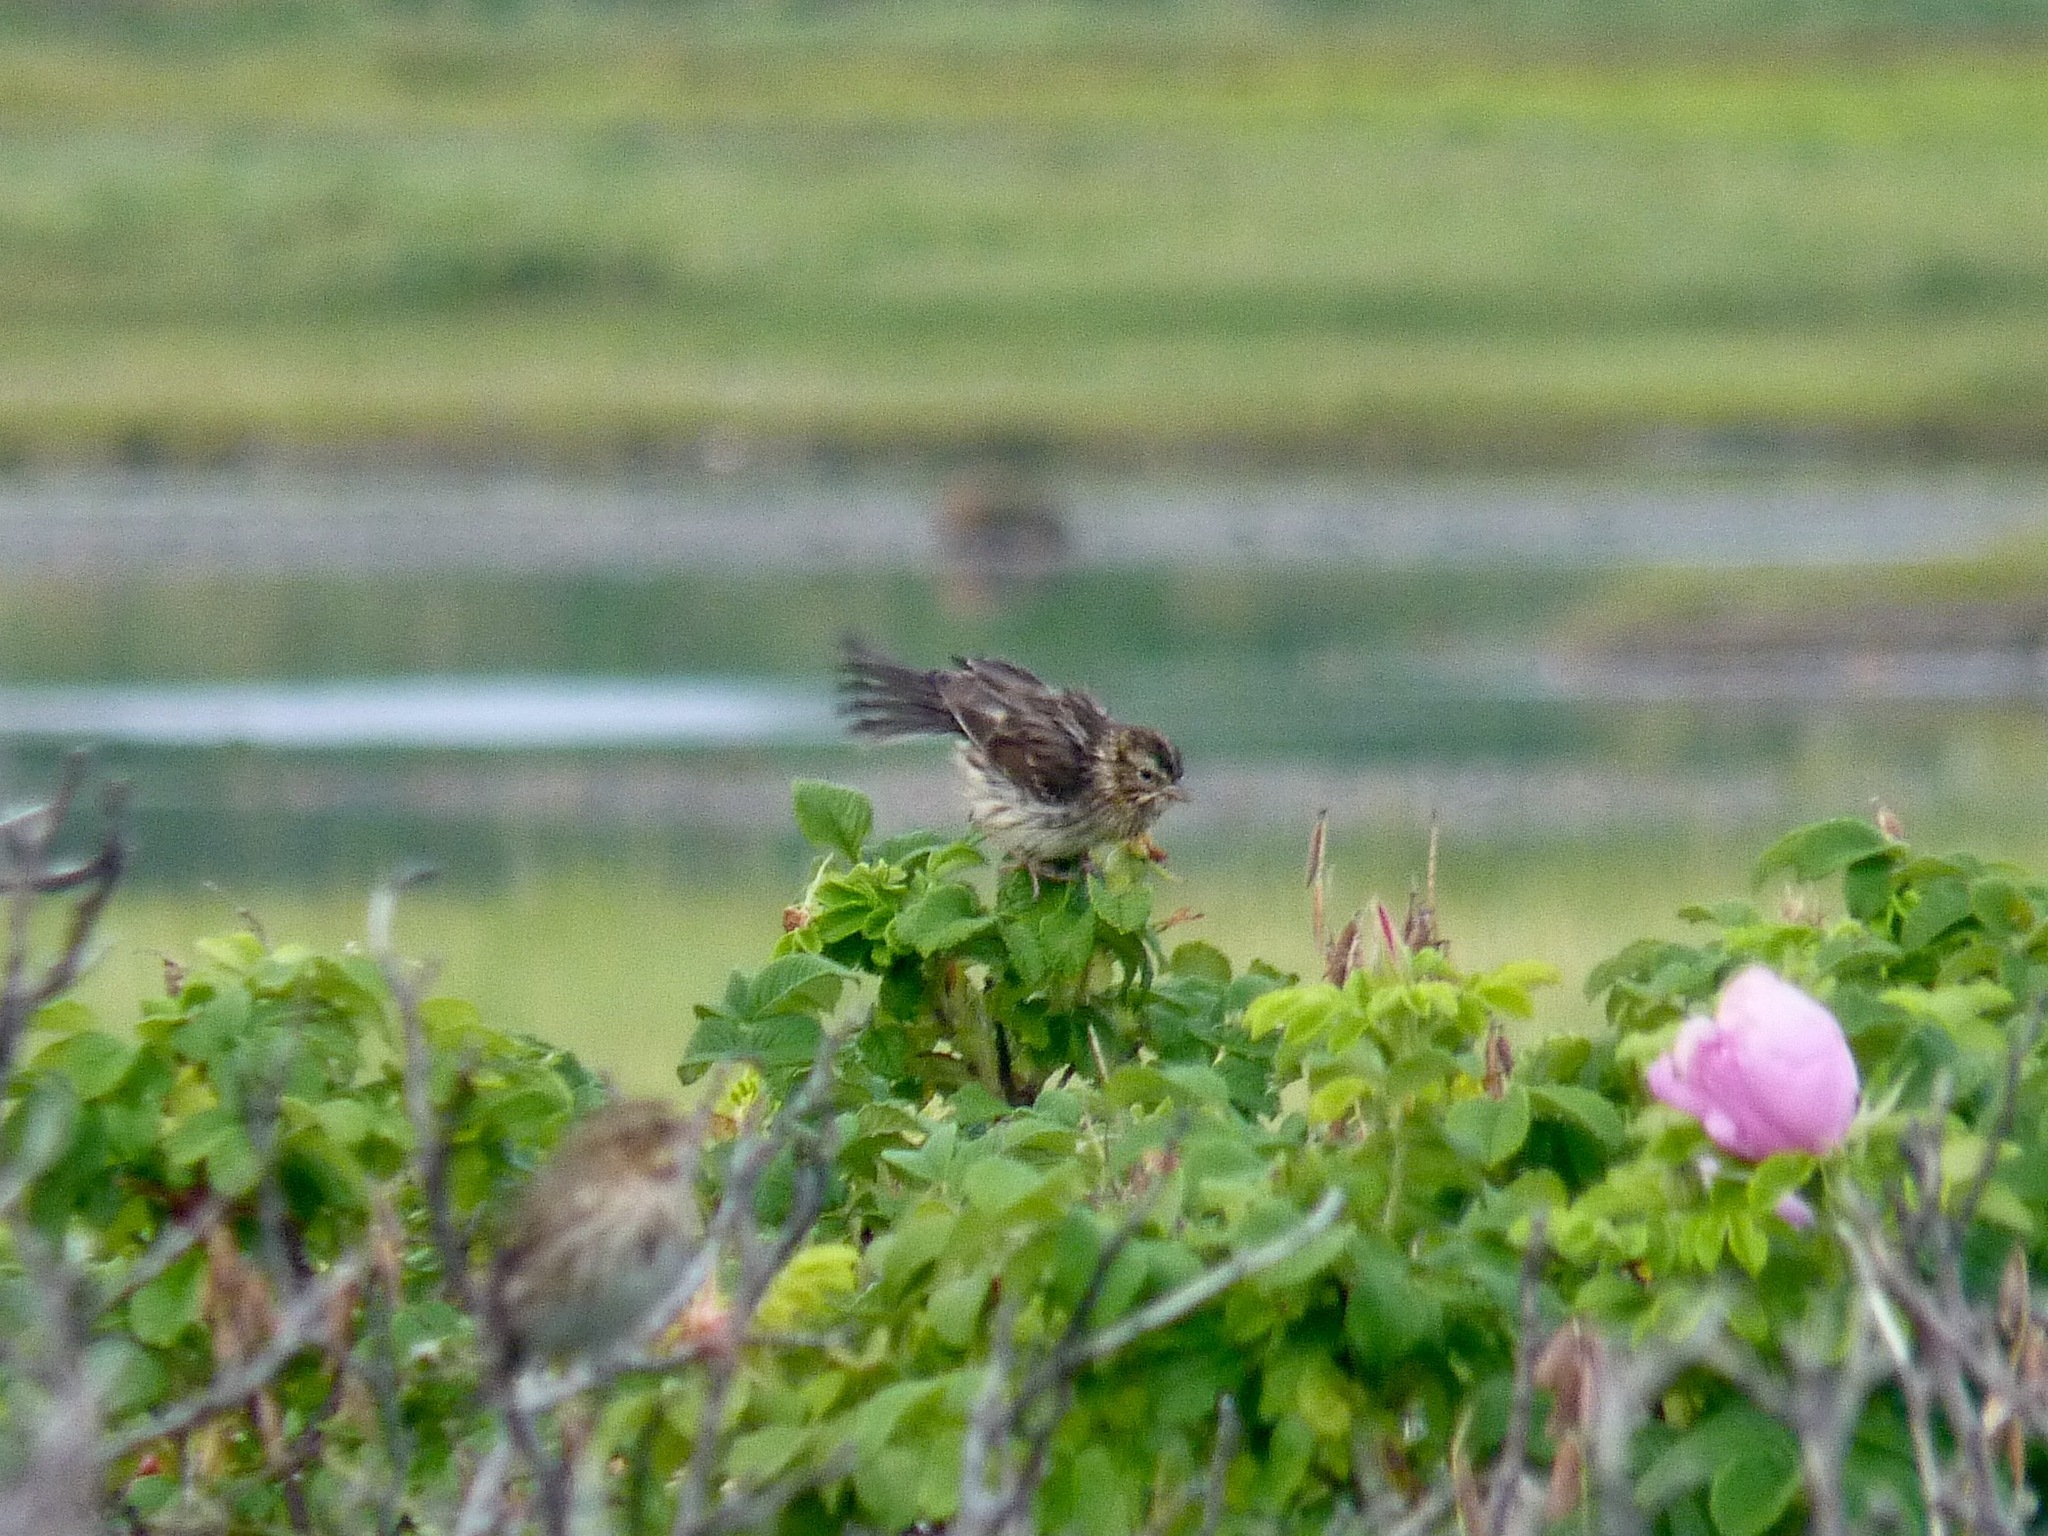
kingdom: Animalia
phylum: Chordata
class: Aves
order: Passeriformes
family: Passerellidae
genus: Passerculus
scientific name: Passerculus sandwichensis
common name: Savannah sparrow
